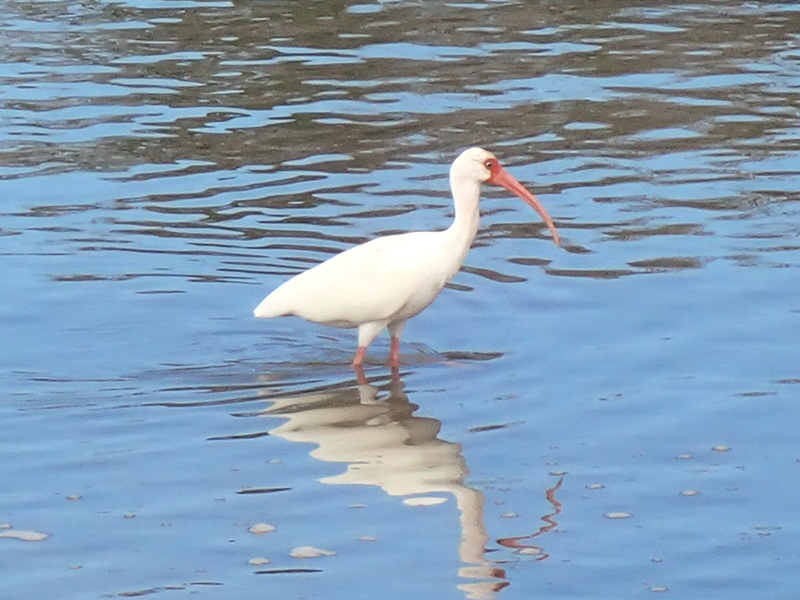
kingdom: Animalia
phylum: Chordata
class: Aves
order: Pelecaniformes
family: Threskiornithidae
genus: Eudocimus
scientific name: Eudocimus albus
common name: White ibis
